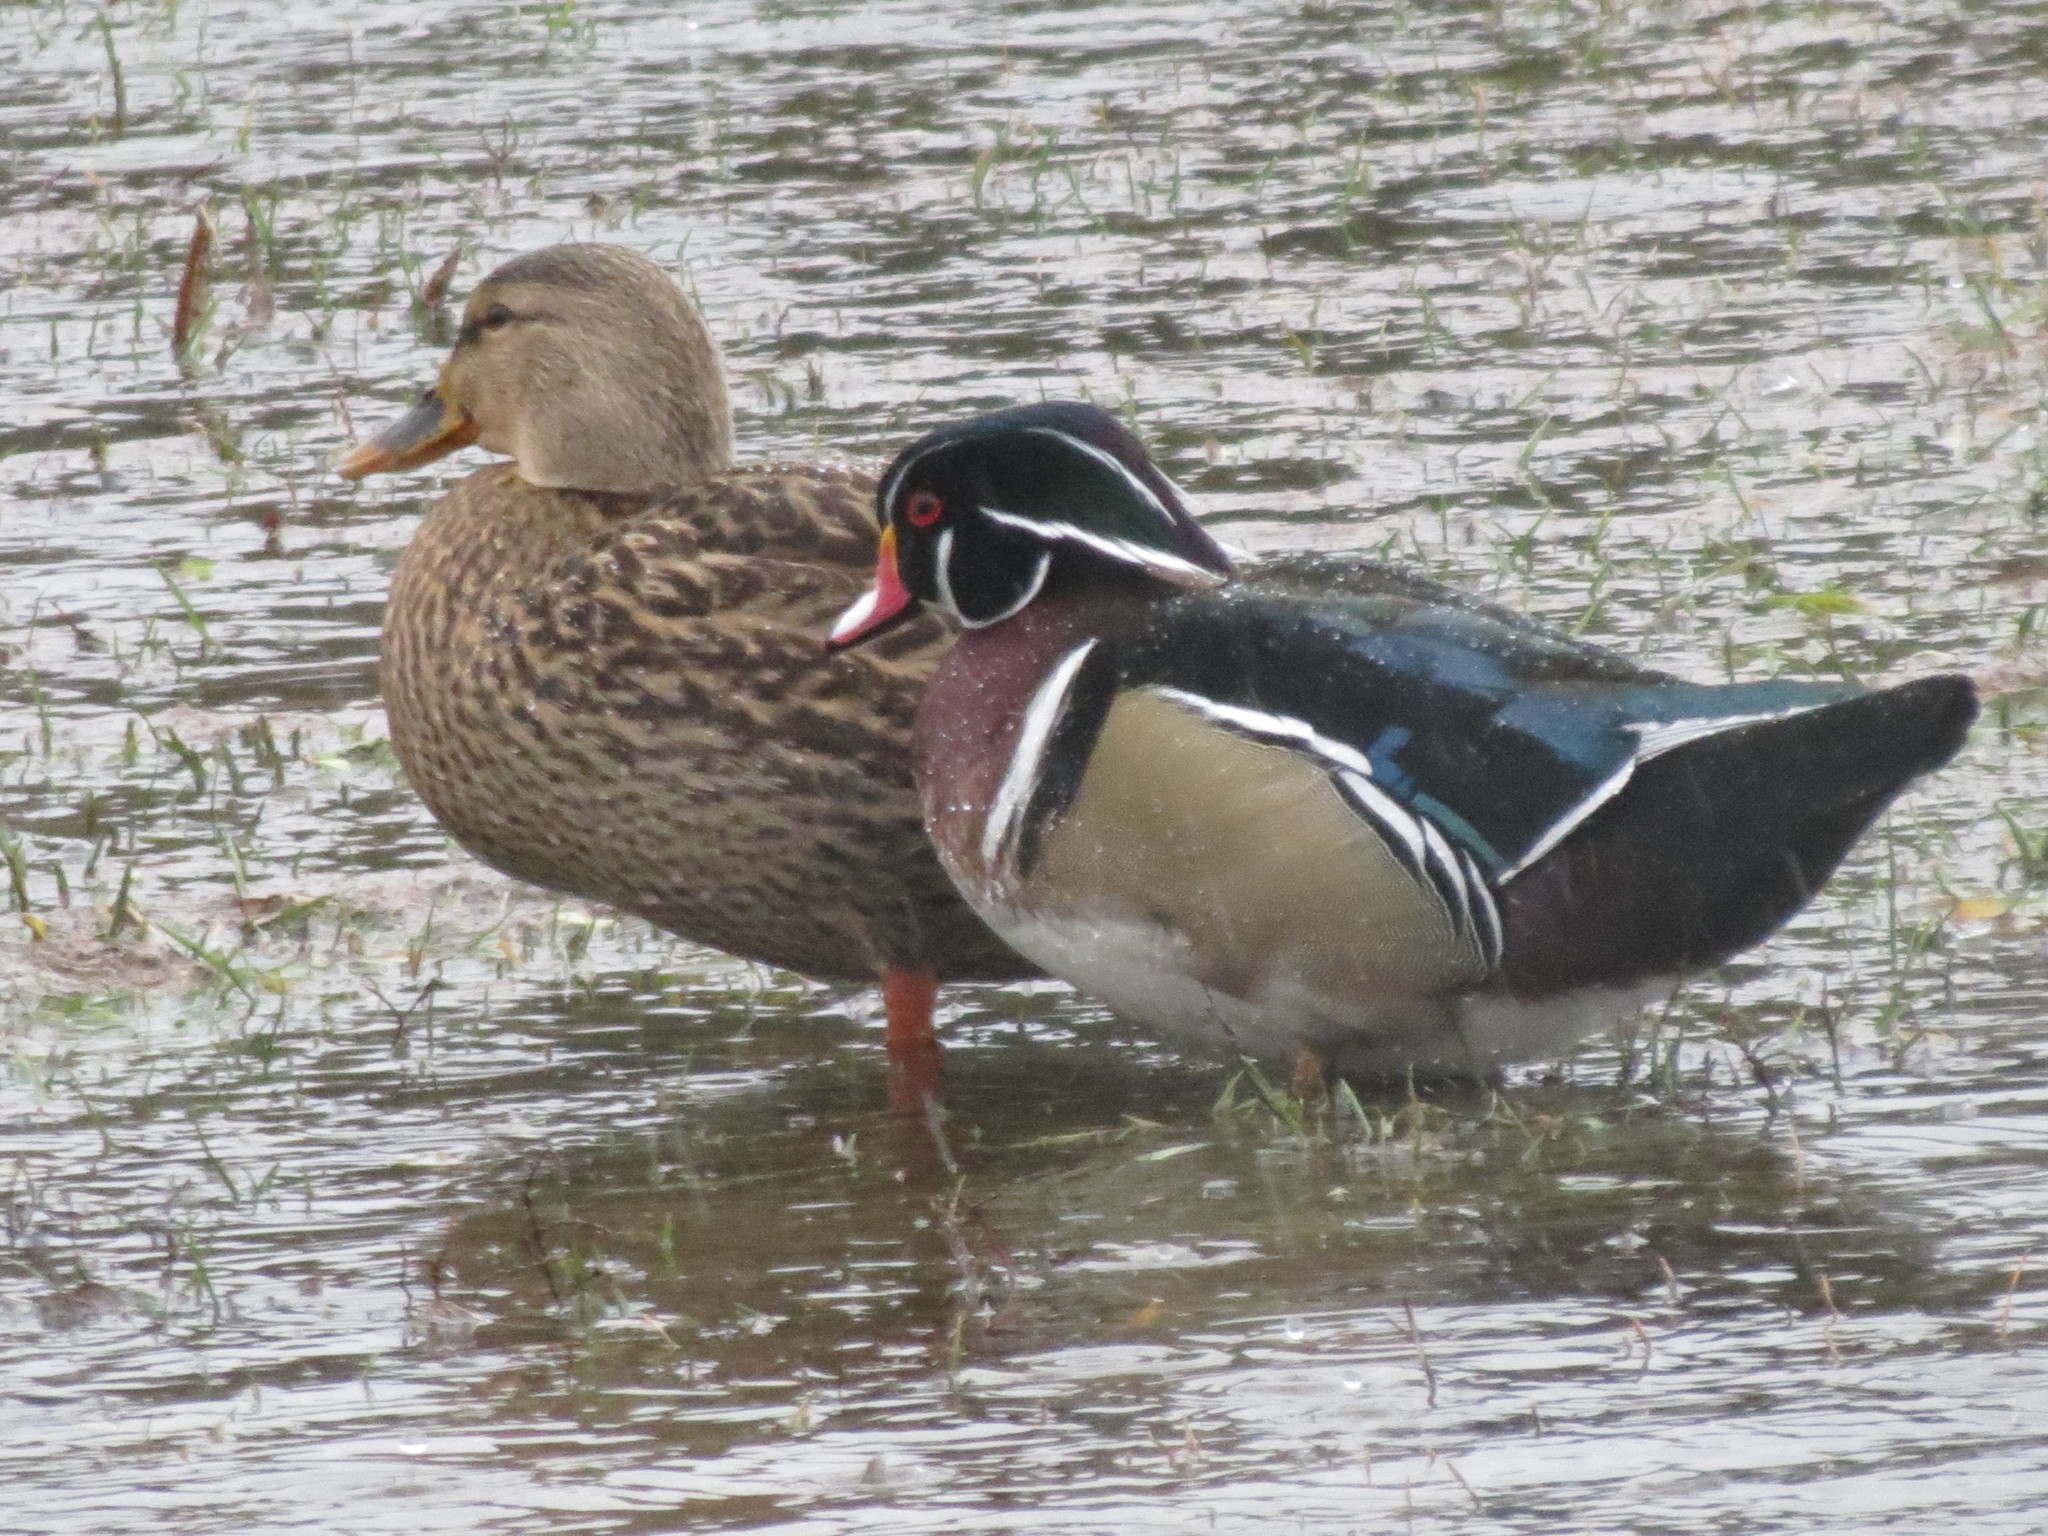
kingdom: Animalia
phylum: Chordata
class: Aves
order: Anseriformes
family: Anatidae
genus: Aix
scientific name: Aix sponsa
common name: Wood duck
